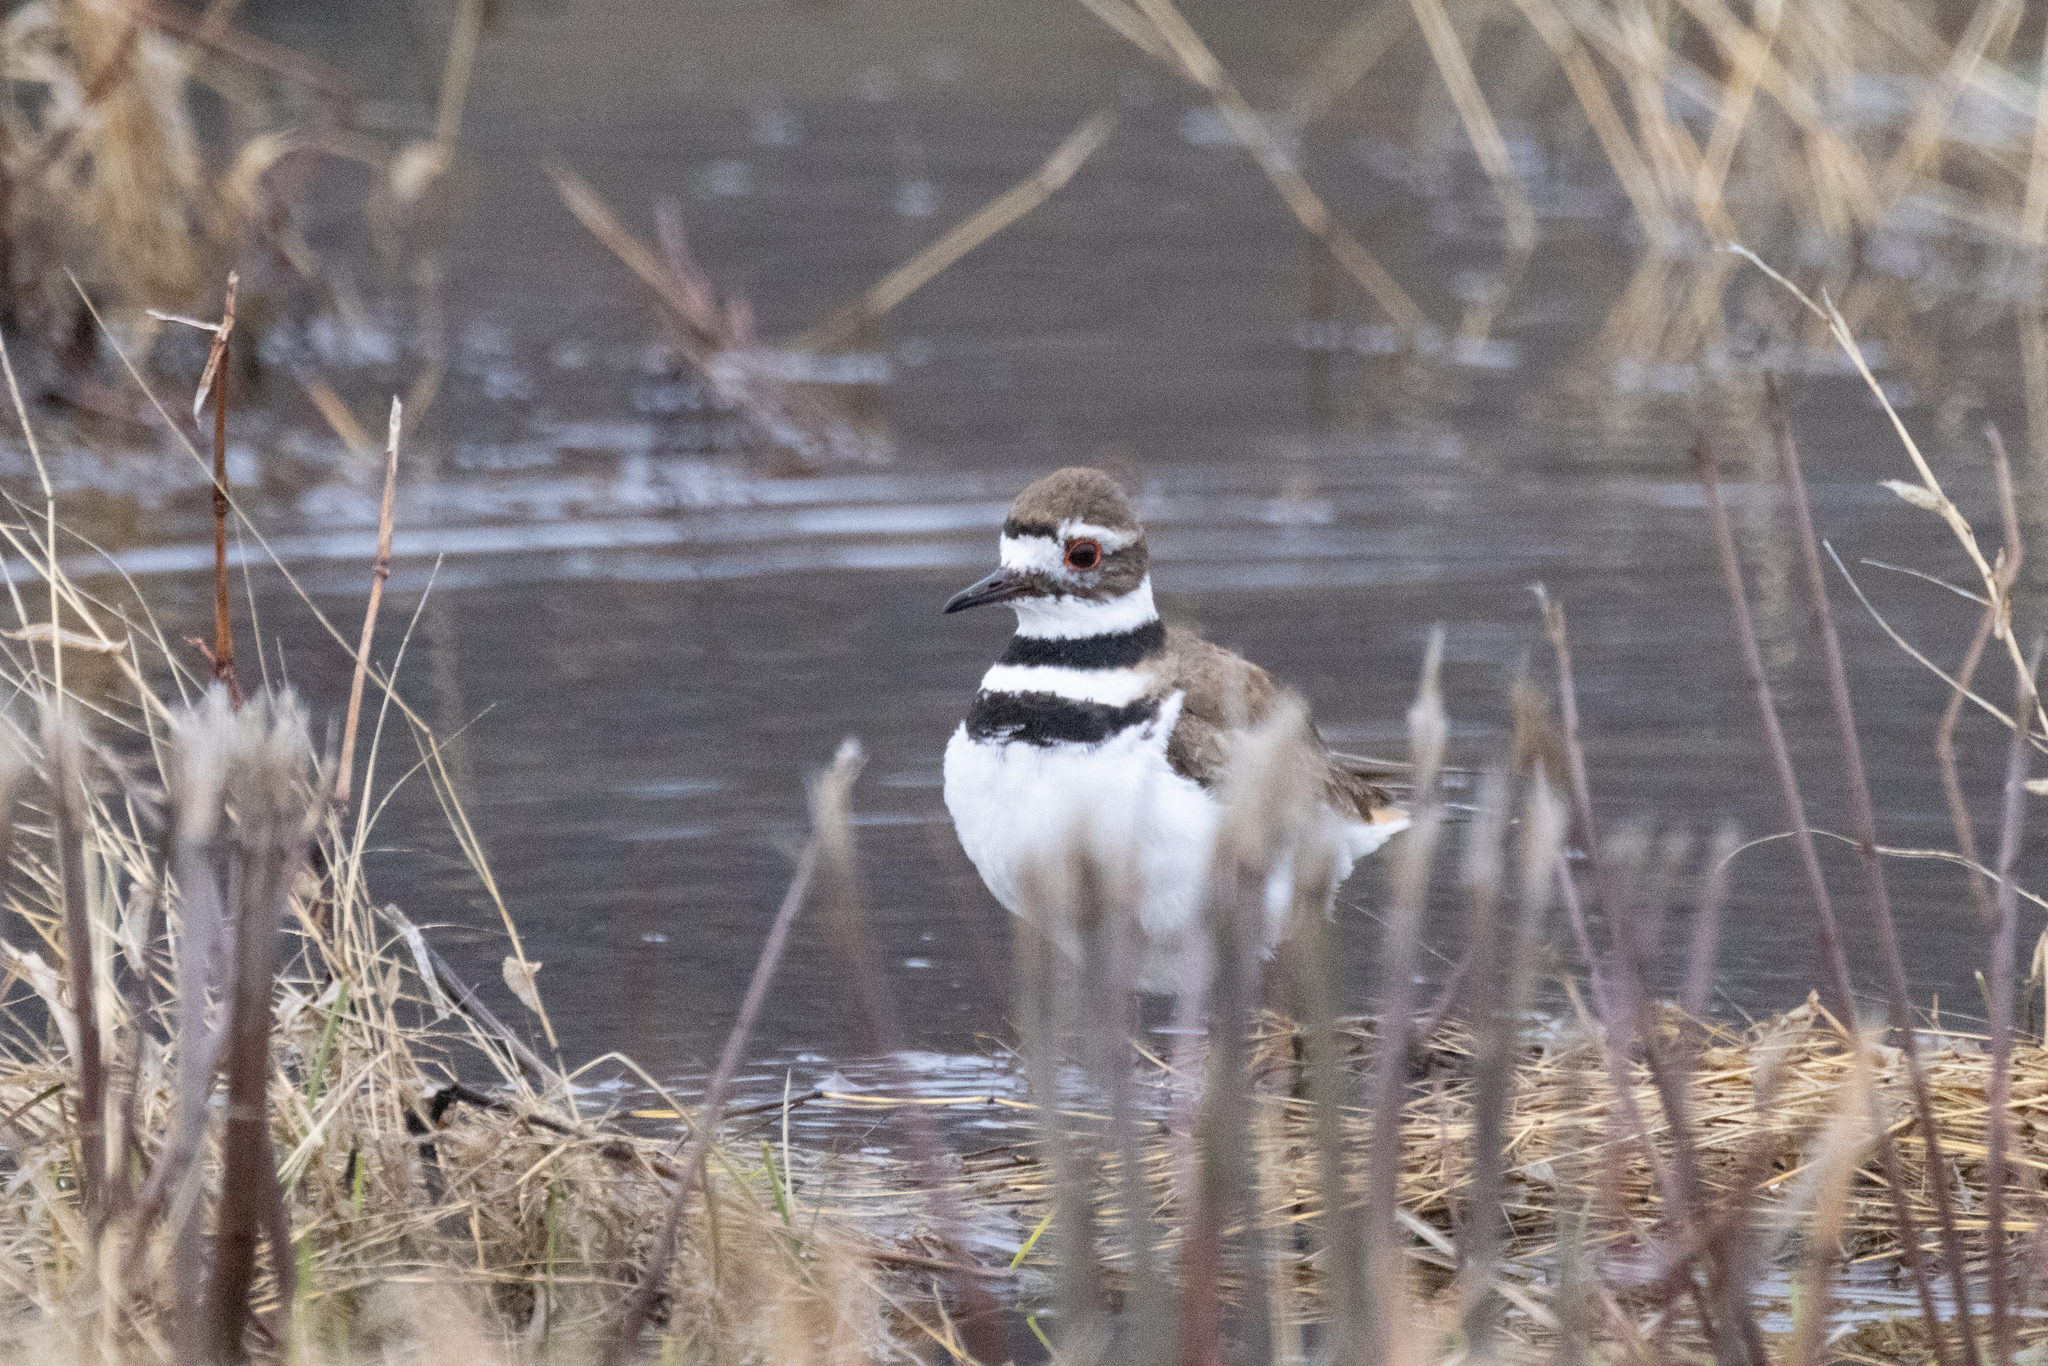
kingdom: Animalia
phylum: Chordata
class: Aves
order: Charadriiformes
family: Charadriidae
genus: Charadrius
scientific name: Charadrius vociferus
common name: Killdeer
